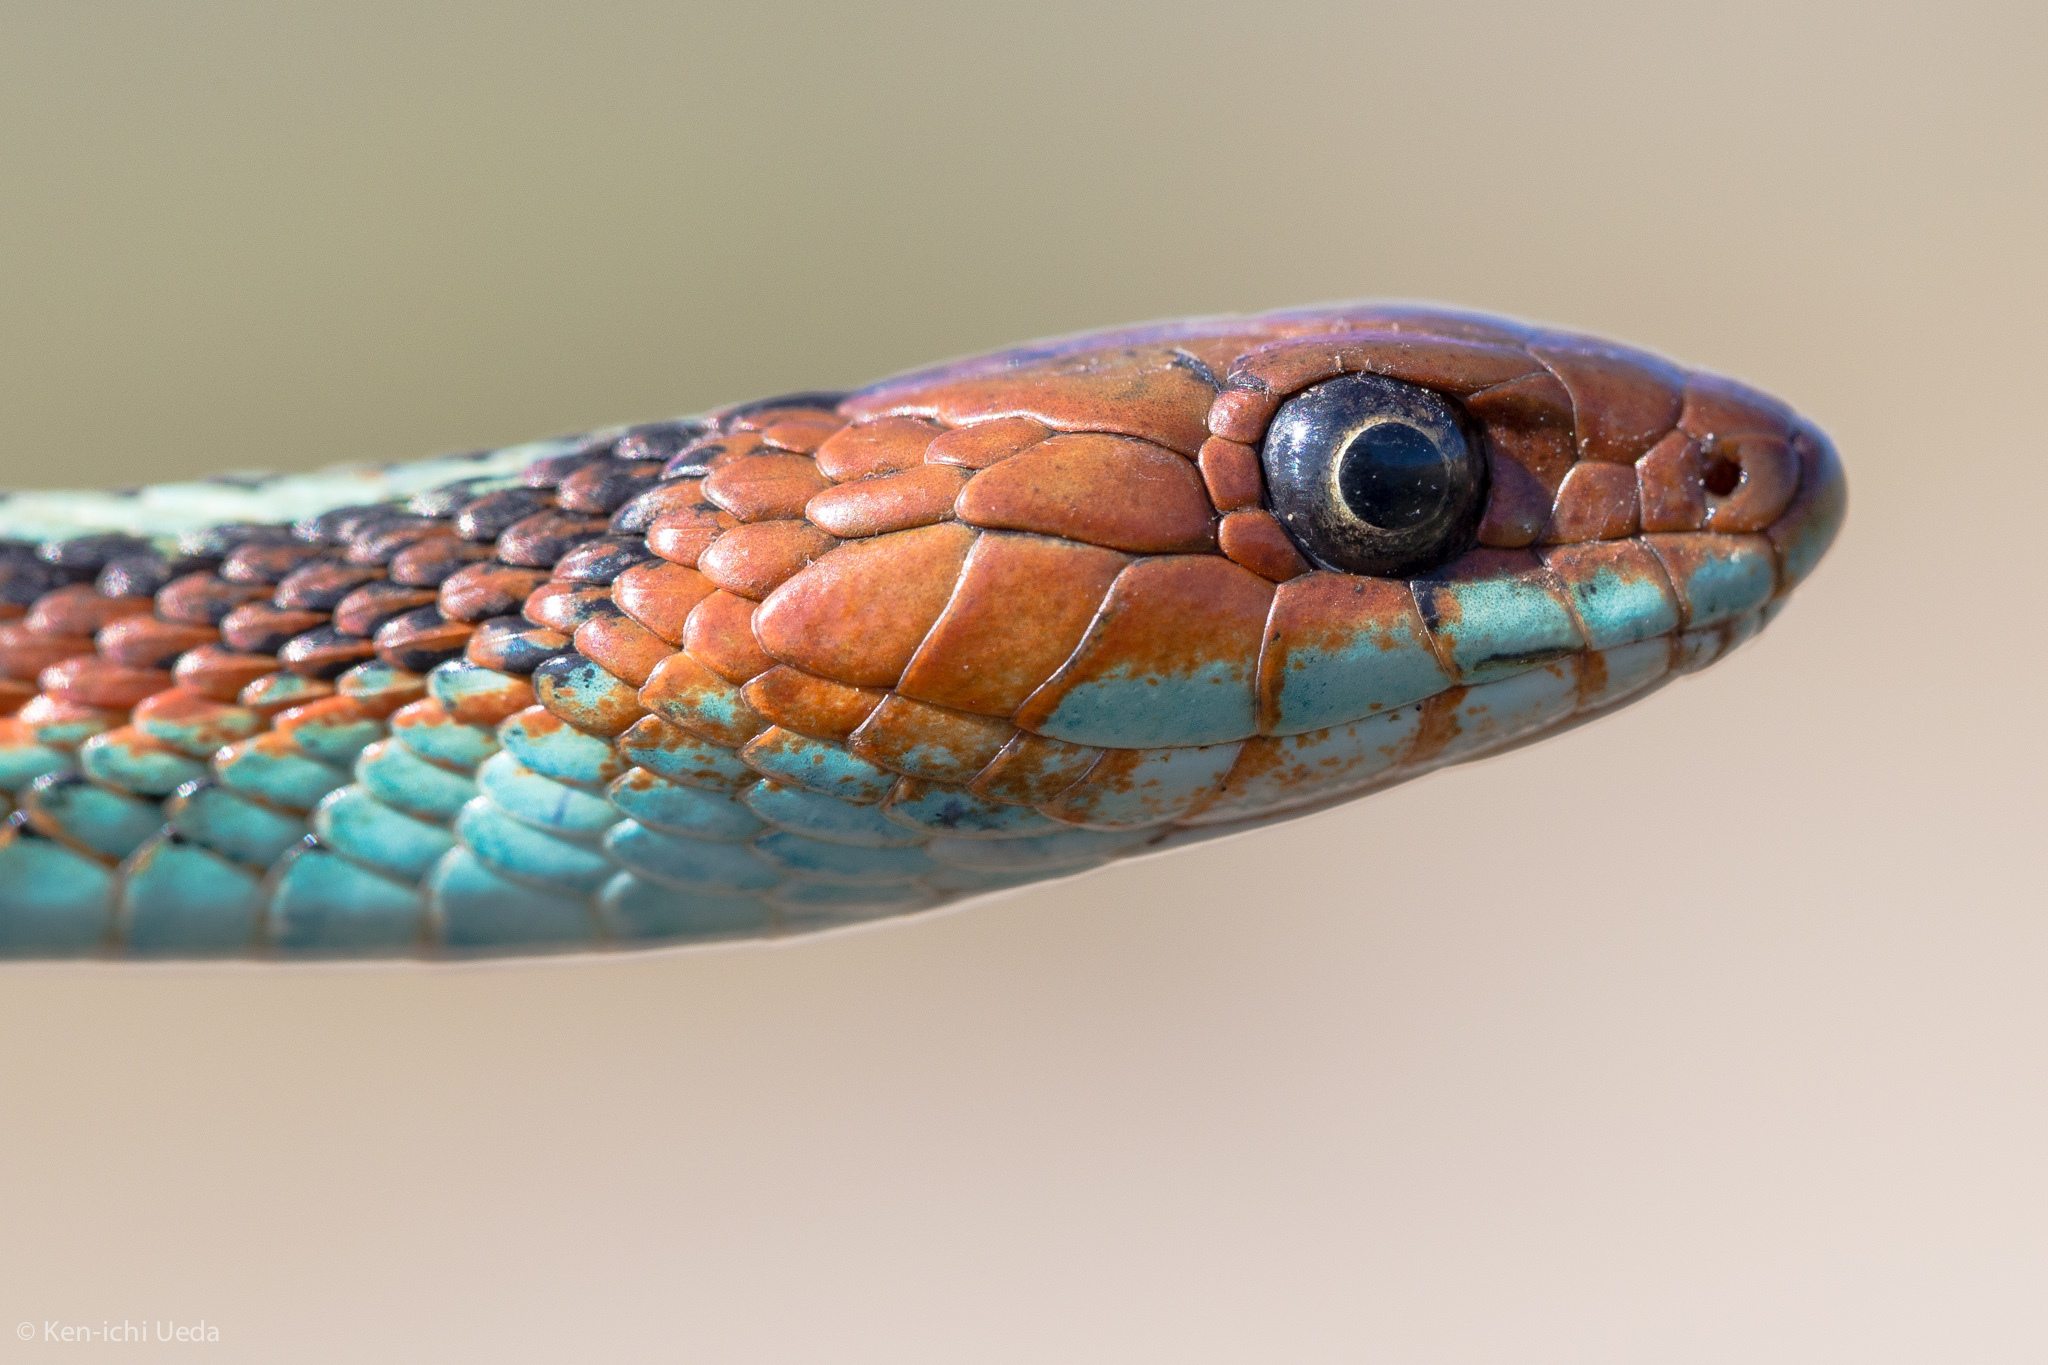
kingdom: Animalia
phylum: Chordata
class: Squamata
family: Colubridae
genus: Thamnophis
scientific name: Thamnophis sirtalis
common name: Common garter snake
